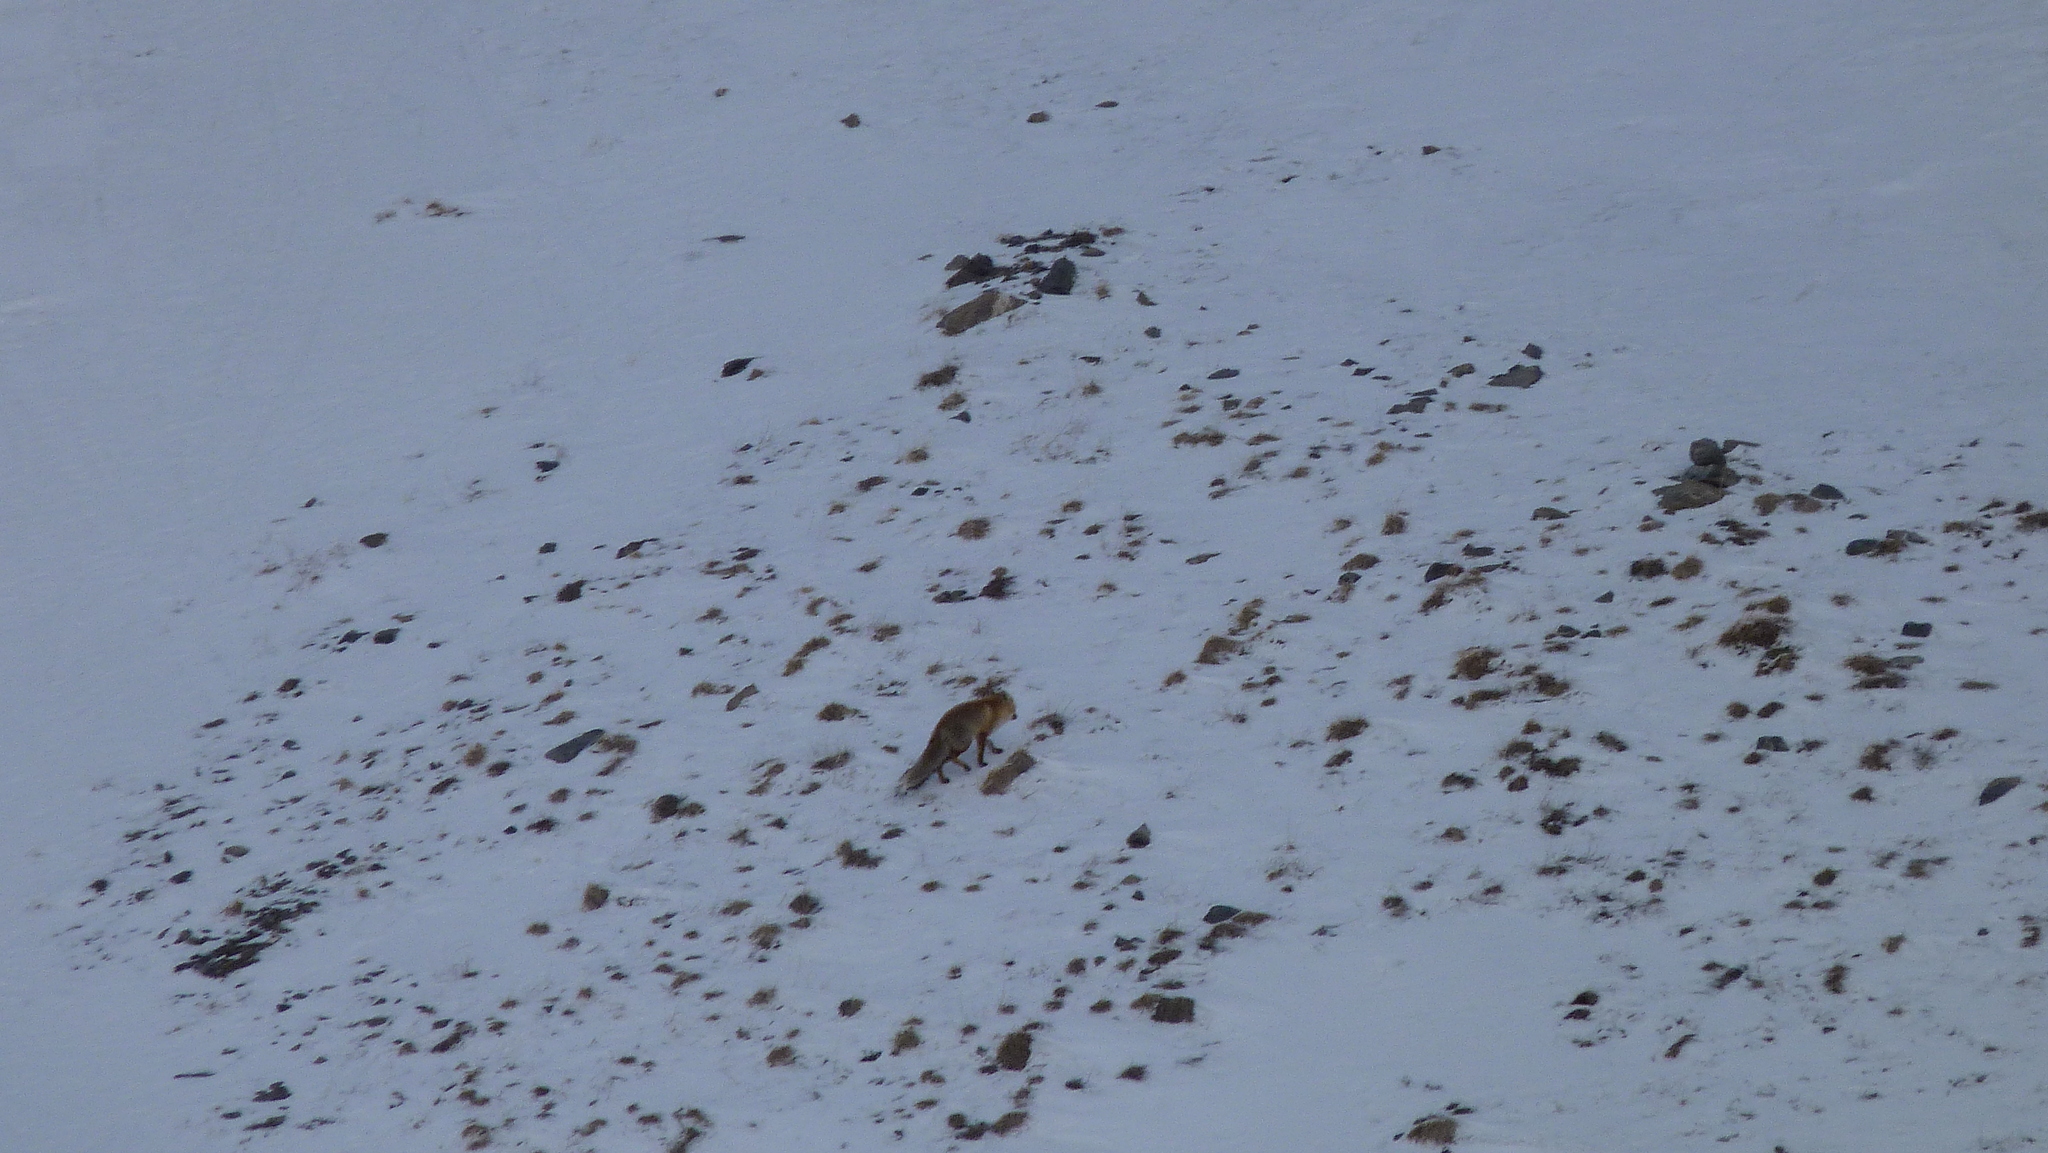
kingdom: Animalia
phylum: Chordata
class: Mammalia
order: Carnivora
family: Canidae
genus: Vulpes
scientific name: Vulpes vulpes
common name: Red fox
